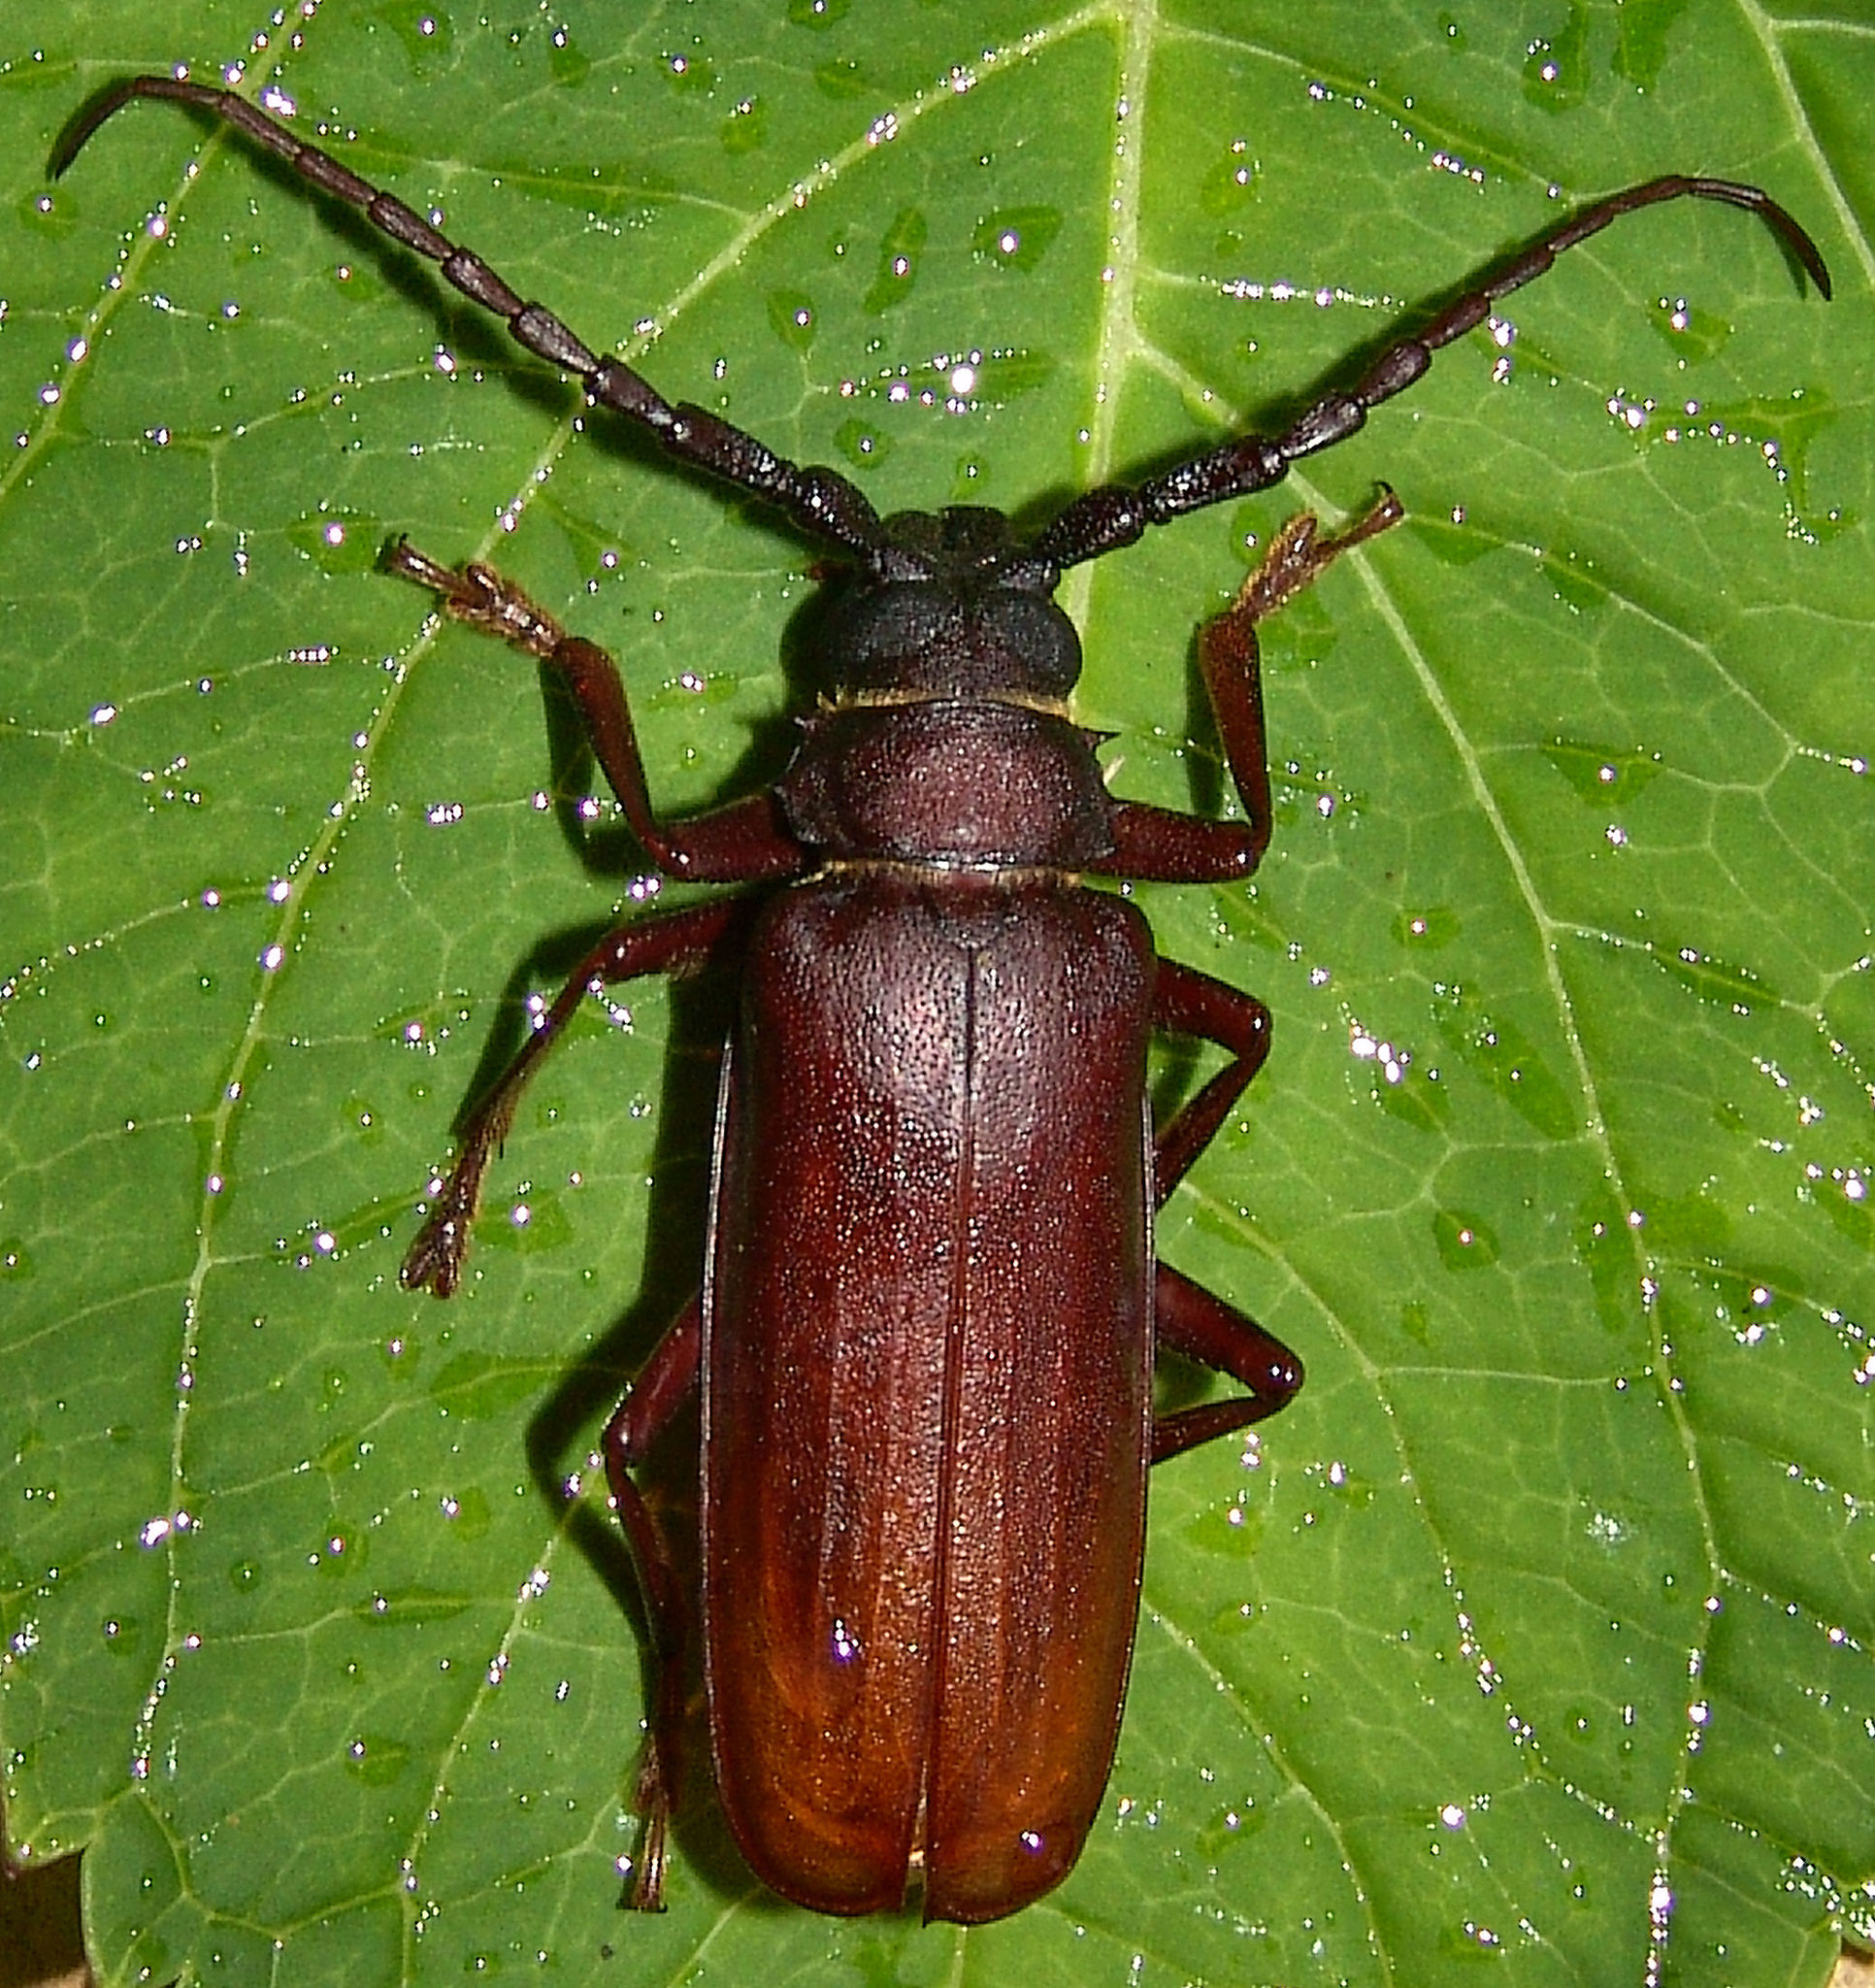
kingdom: Animalia
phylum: Arthropoda
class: Insecta
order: Coleoptera
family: Cerambycidae
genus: Orthosoma
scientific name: Orthosoma brunneum
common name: Brown prionid beetle
